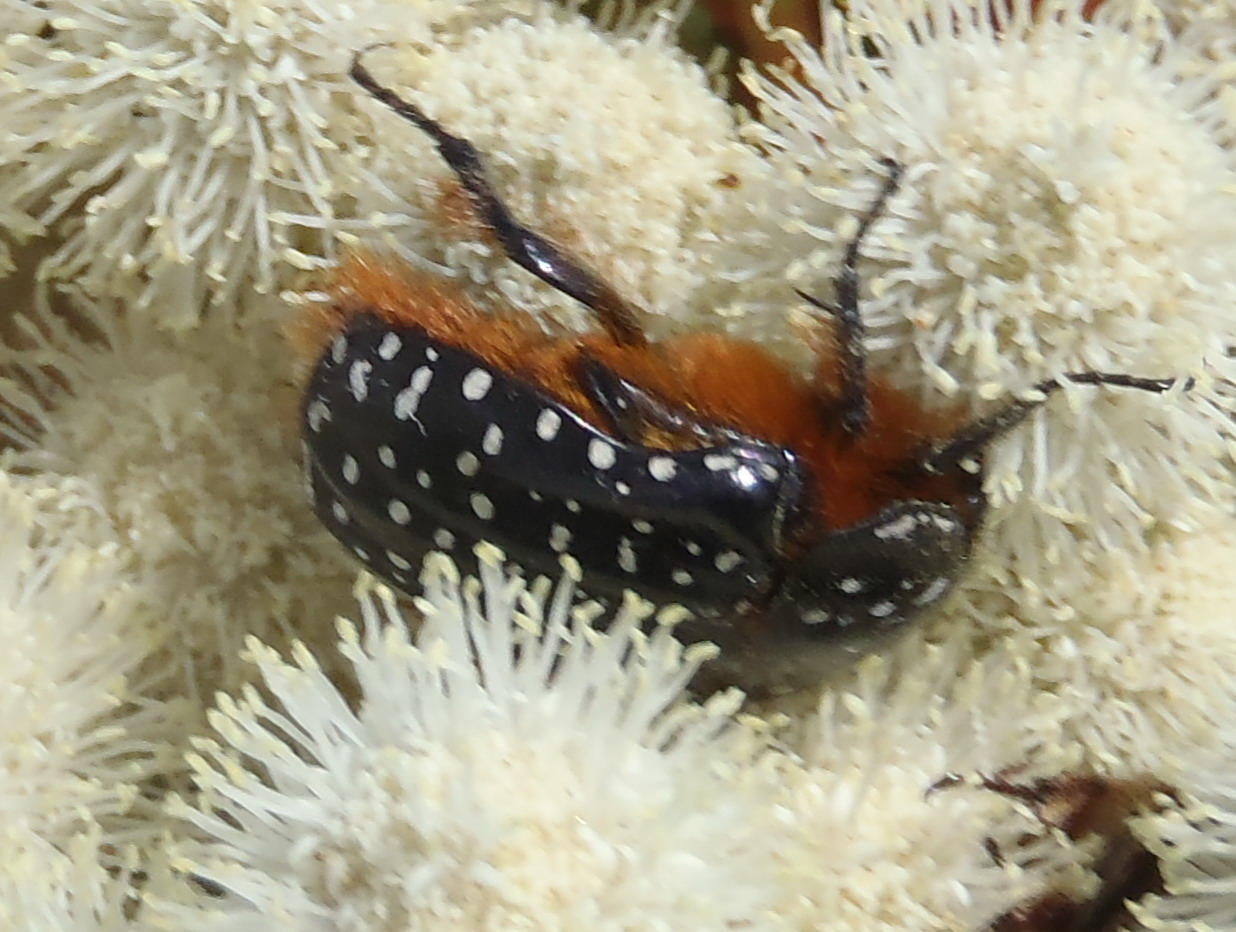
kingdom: Animalia
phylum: Arthropoda
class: Insecta
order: Coleoptera
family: Scarabaeidae
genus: Trichostetha
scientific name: Trichostetha albopicta
